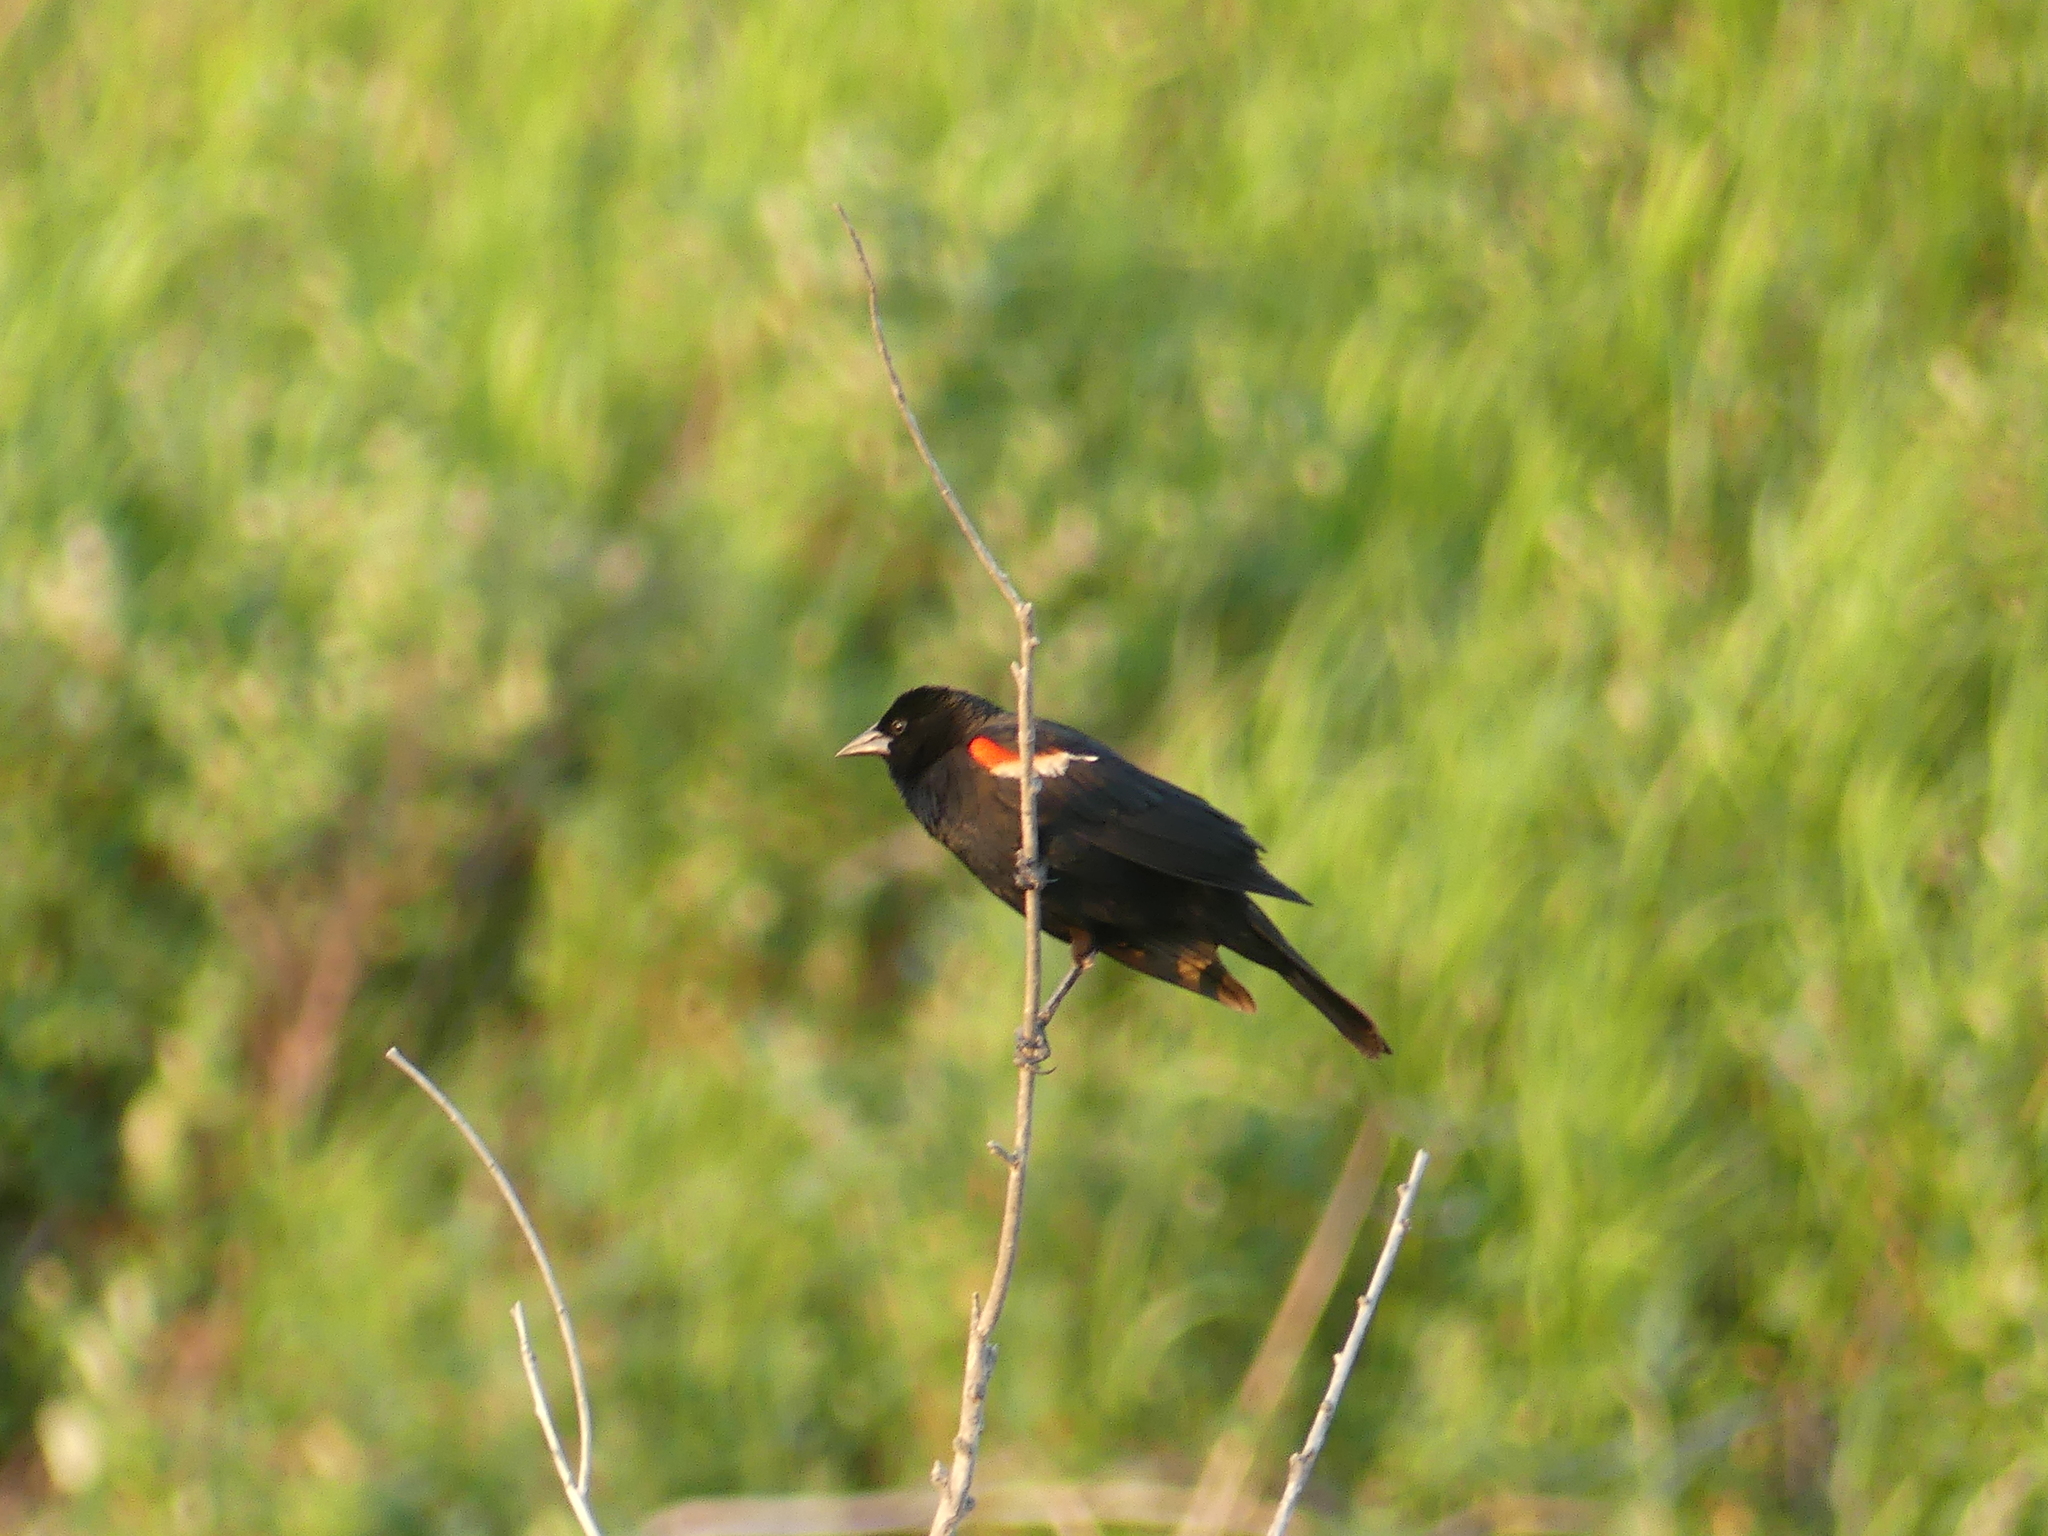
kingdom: Animalia
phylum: Chordata
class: Aves
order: Passeriformes
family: Icteridae
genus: Agelaius
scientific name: Agelaius phoeniceus
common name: Red-winged blackbird
